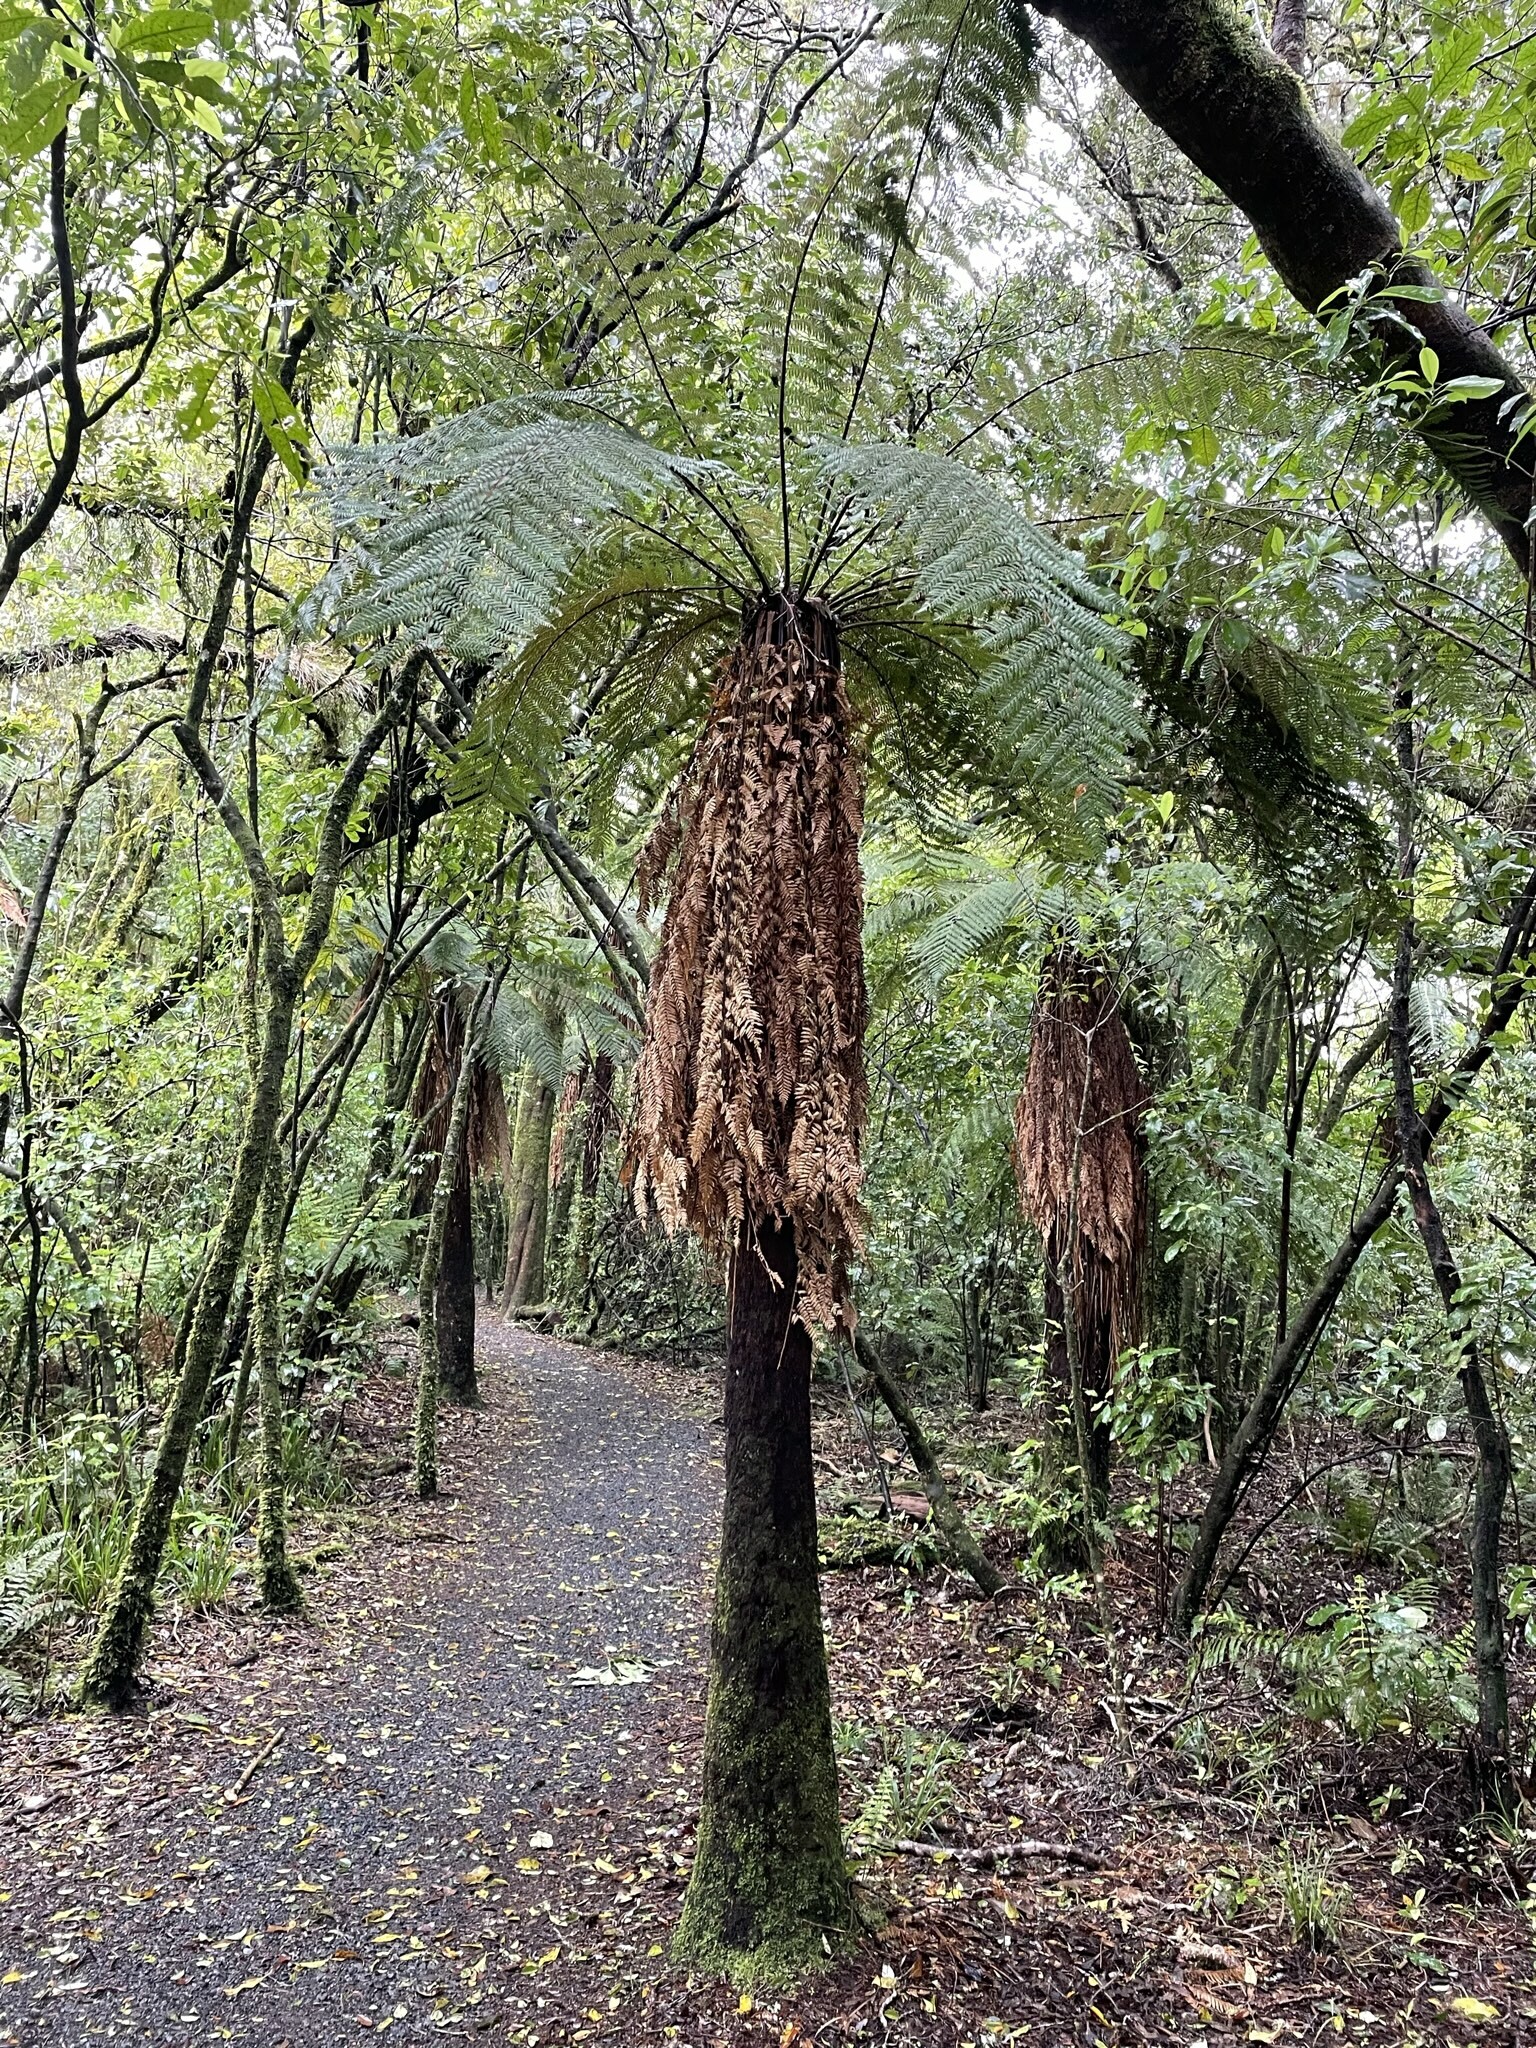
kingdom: Plantae
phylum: Tracheophyta
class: Polypodiopsida
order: Cyatheales
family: Dicksoniaceae
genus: Dicksonia
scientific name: Dicksonia squarrosa
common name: Hard treefern
